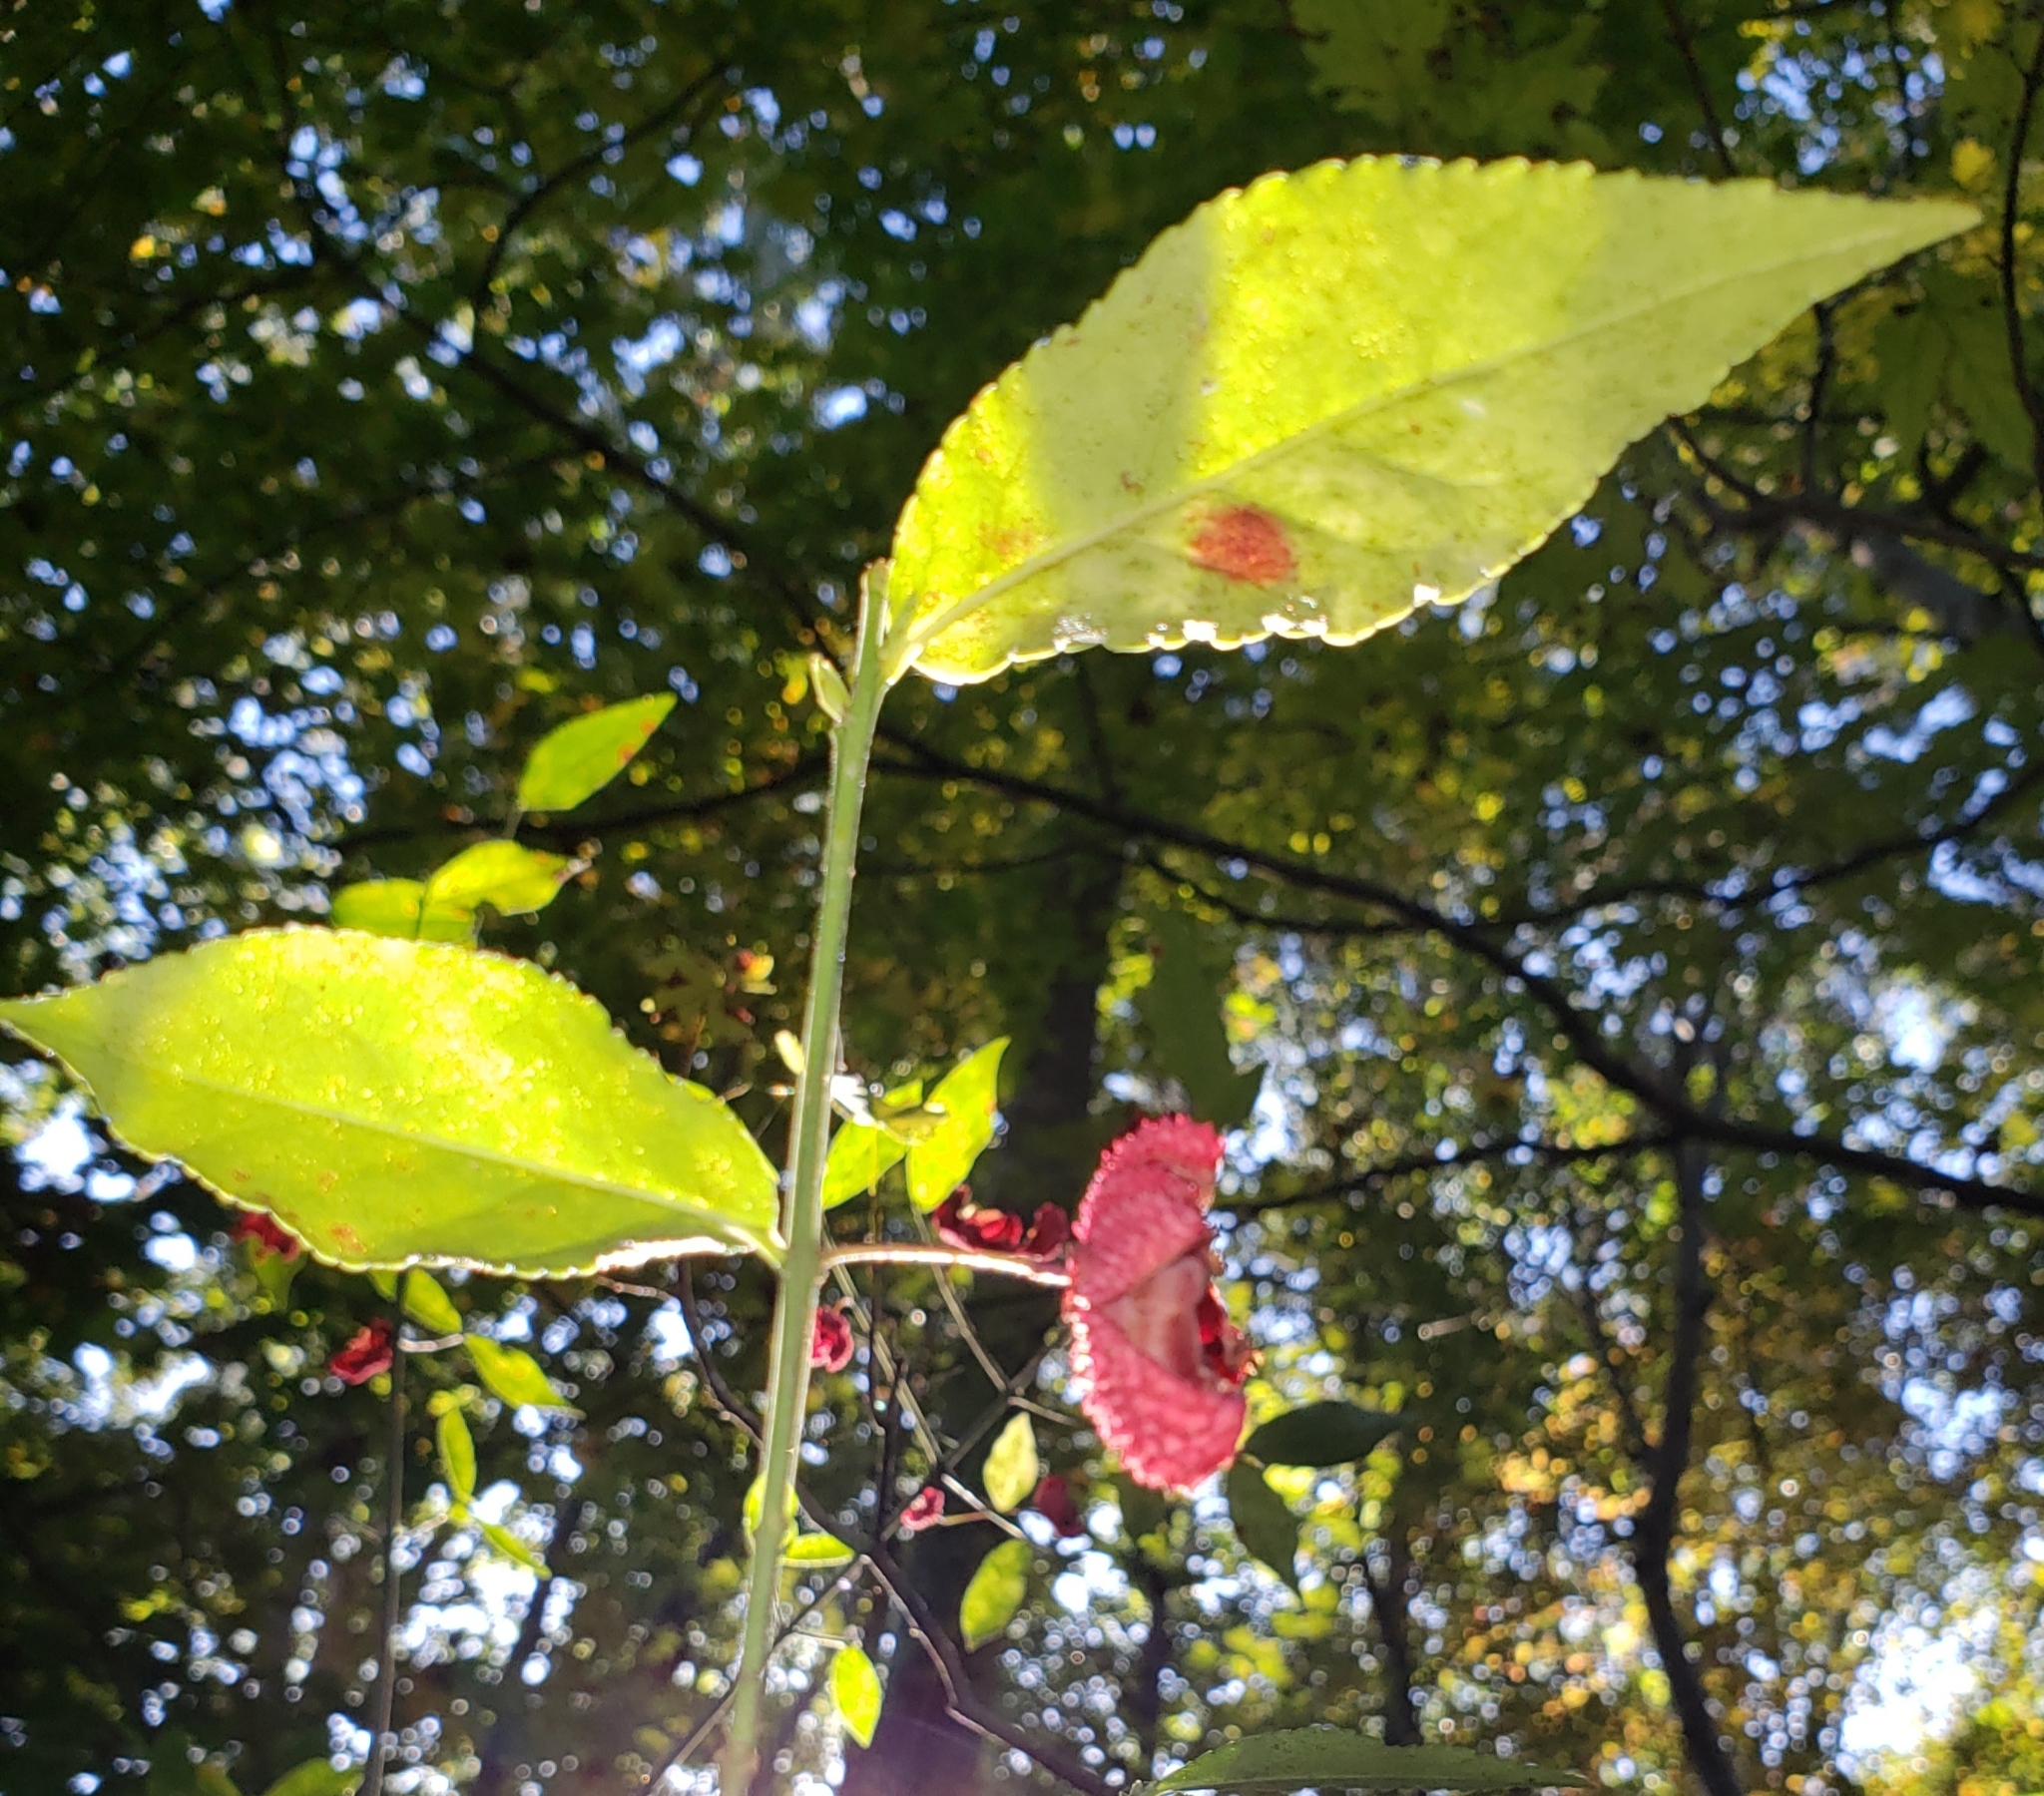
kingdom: Plantae
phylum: Tracheophyta
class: Magnoliopsida
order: Celastrales
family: Celastraceae
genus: Euonymus
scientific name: Euonymus americanus
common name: Bursting-heart
